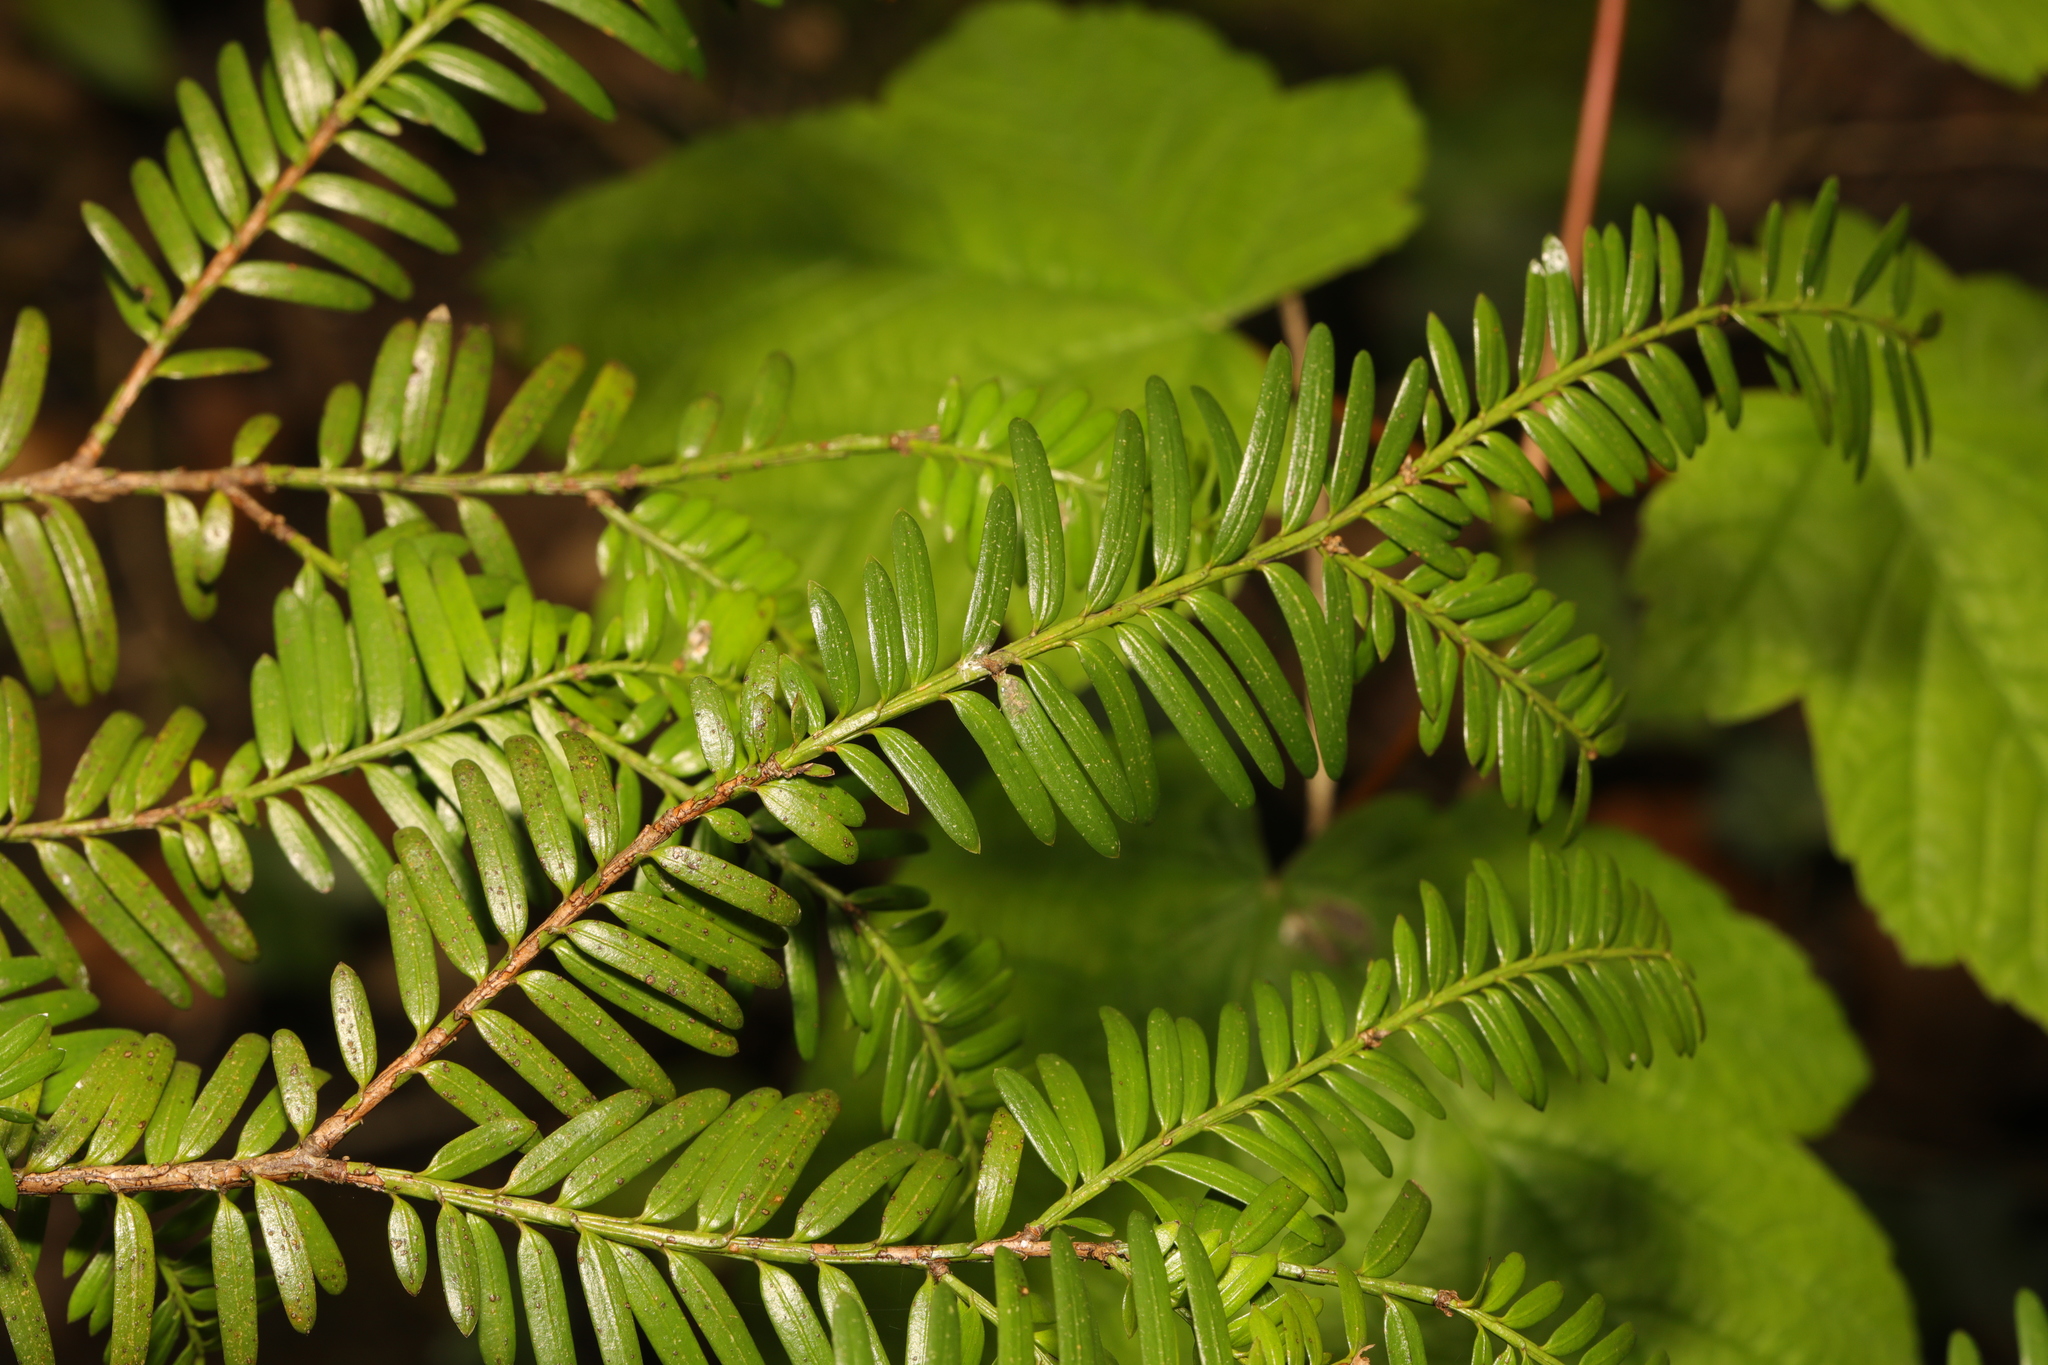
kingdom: Plantae
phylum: Tracheophyta
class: Pinopsida
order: Pinales
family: Taxaceae
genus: Taxus
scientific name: Taxus baccata
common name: Yew
